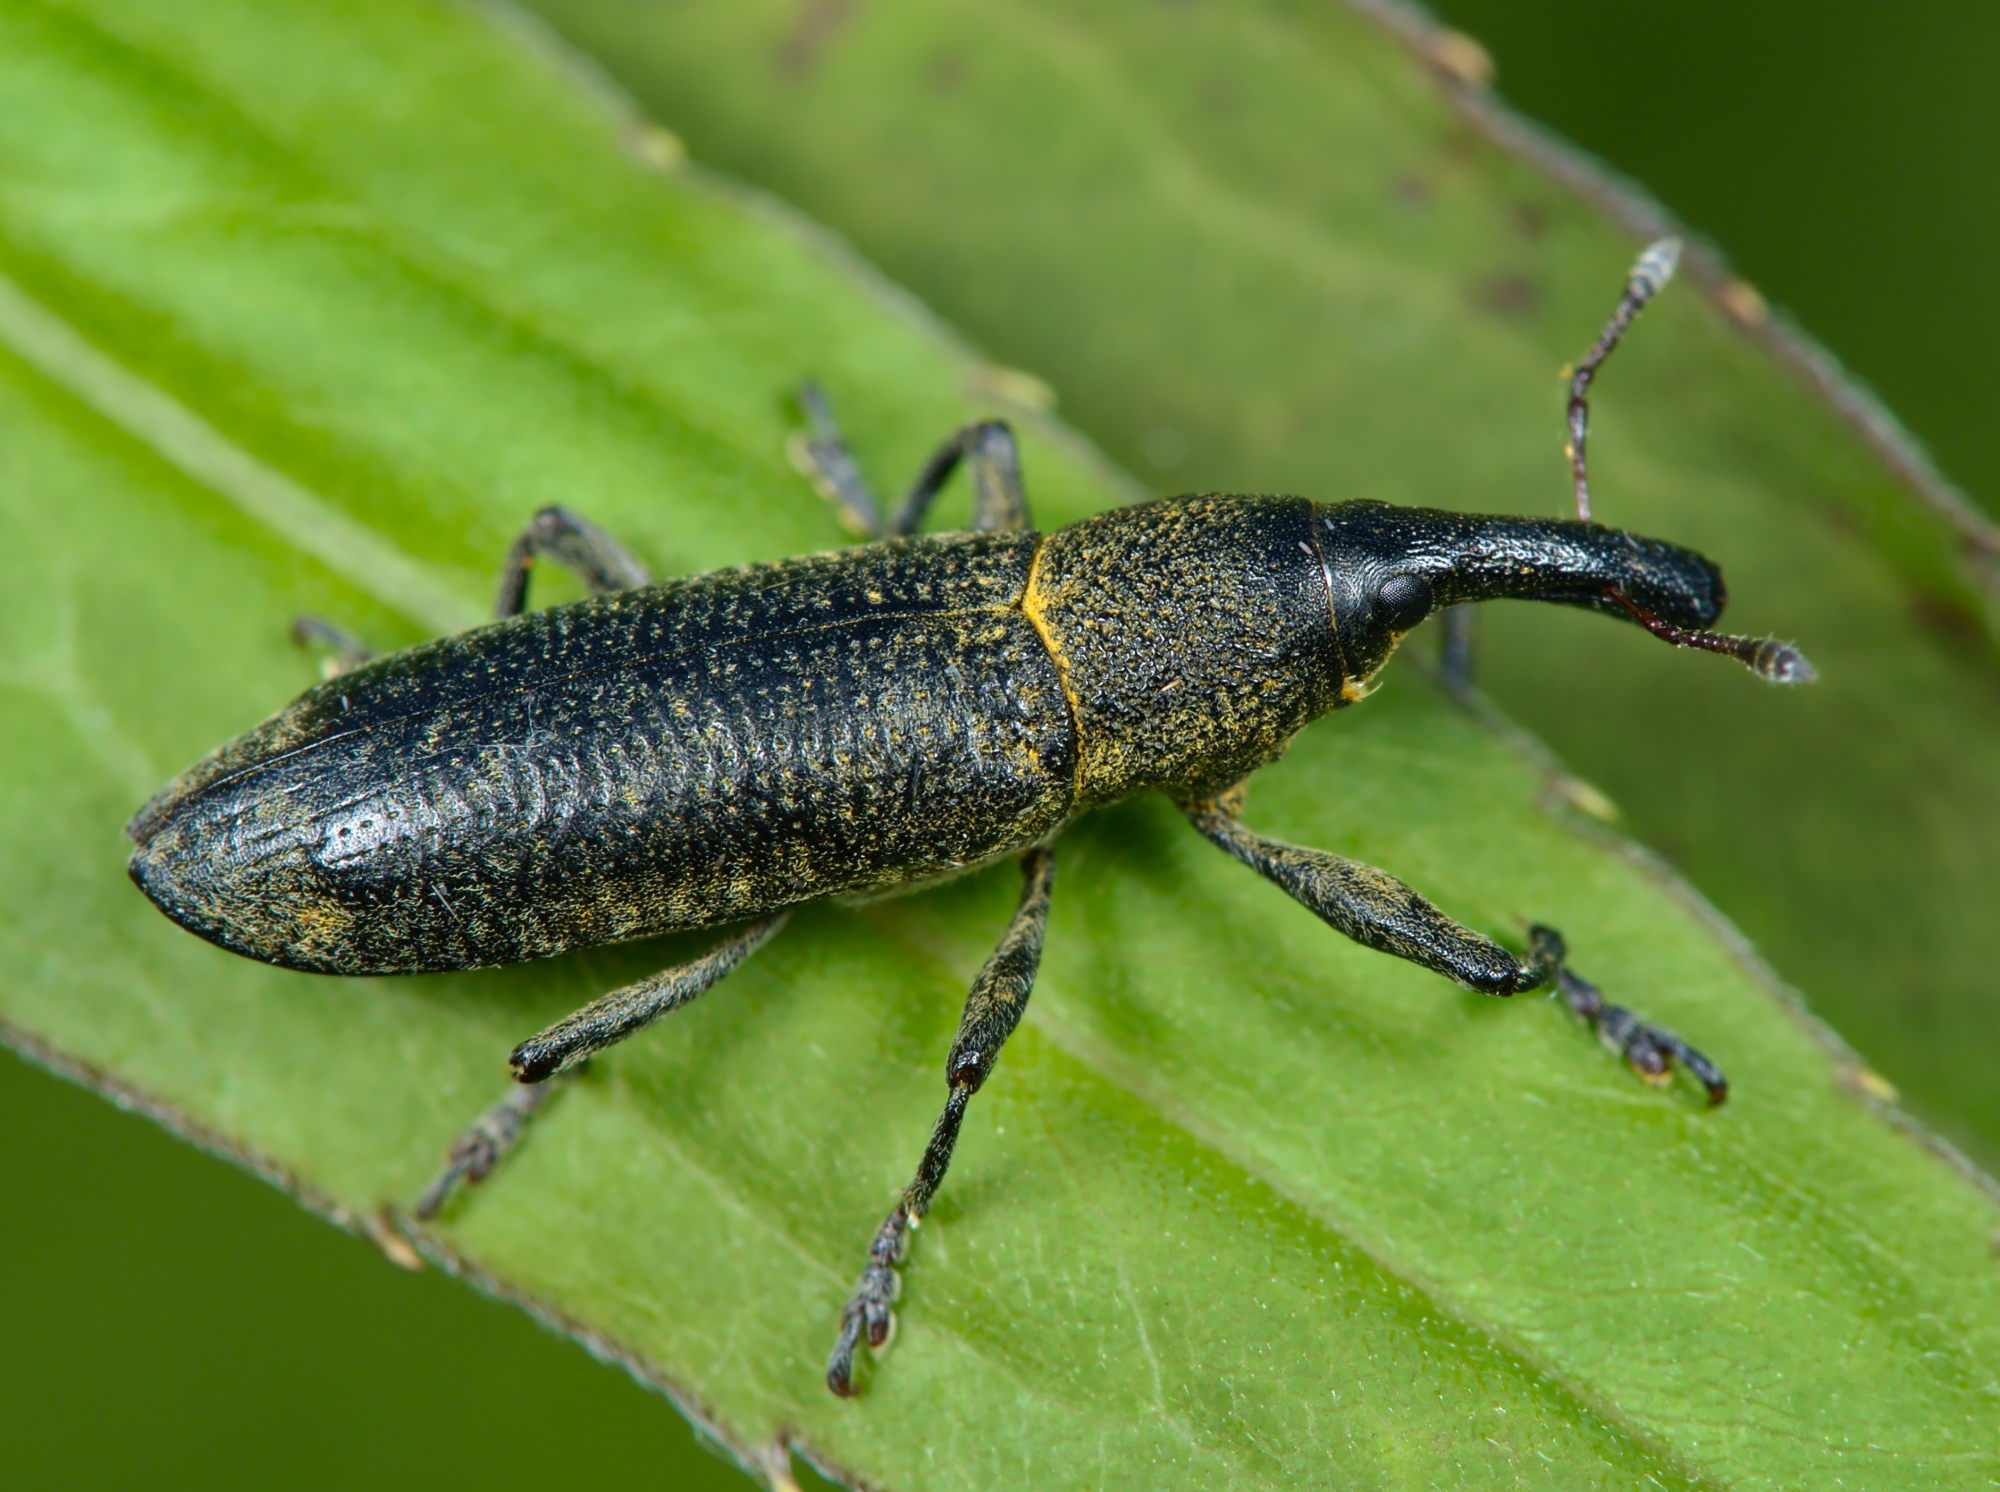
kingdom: Animalia
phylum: Arthropoda
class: Insecta
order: Coleoptera
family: Curculionidae
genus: Lixus
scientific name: Lixus pulverulentus
